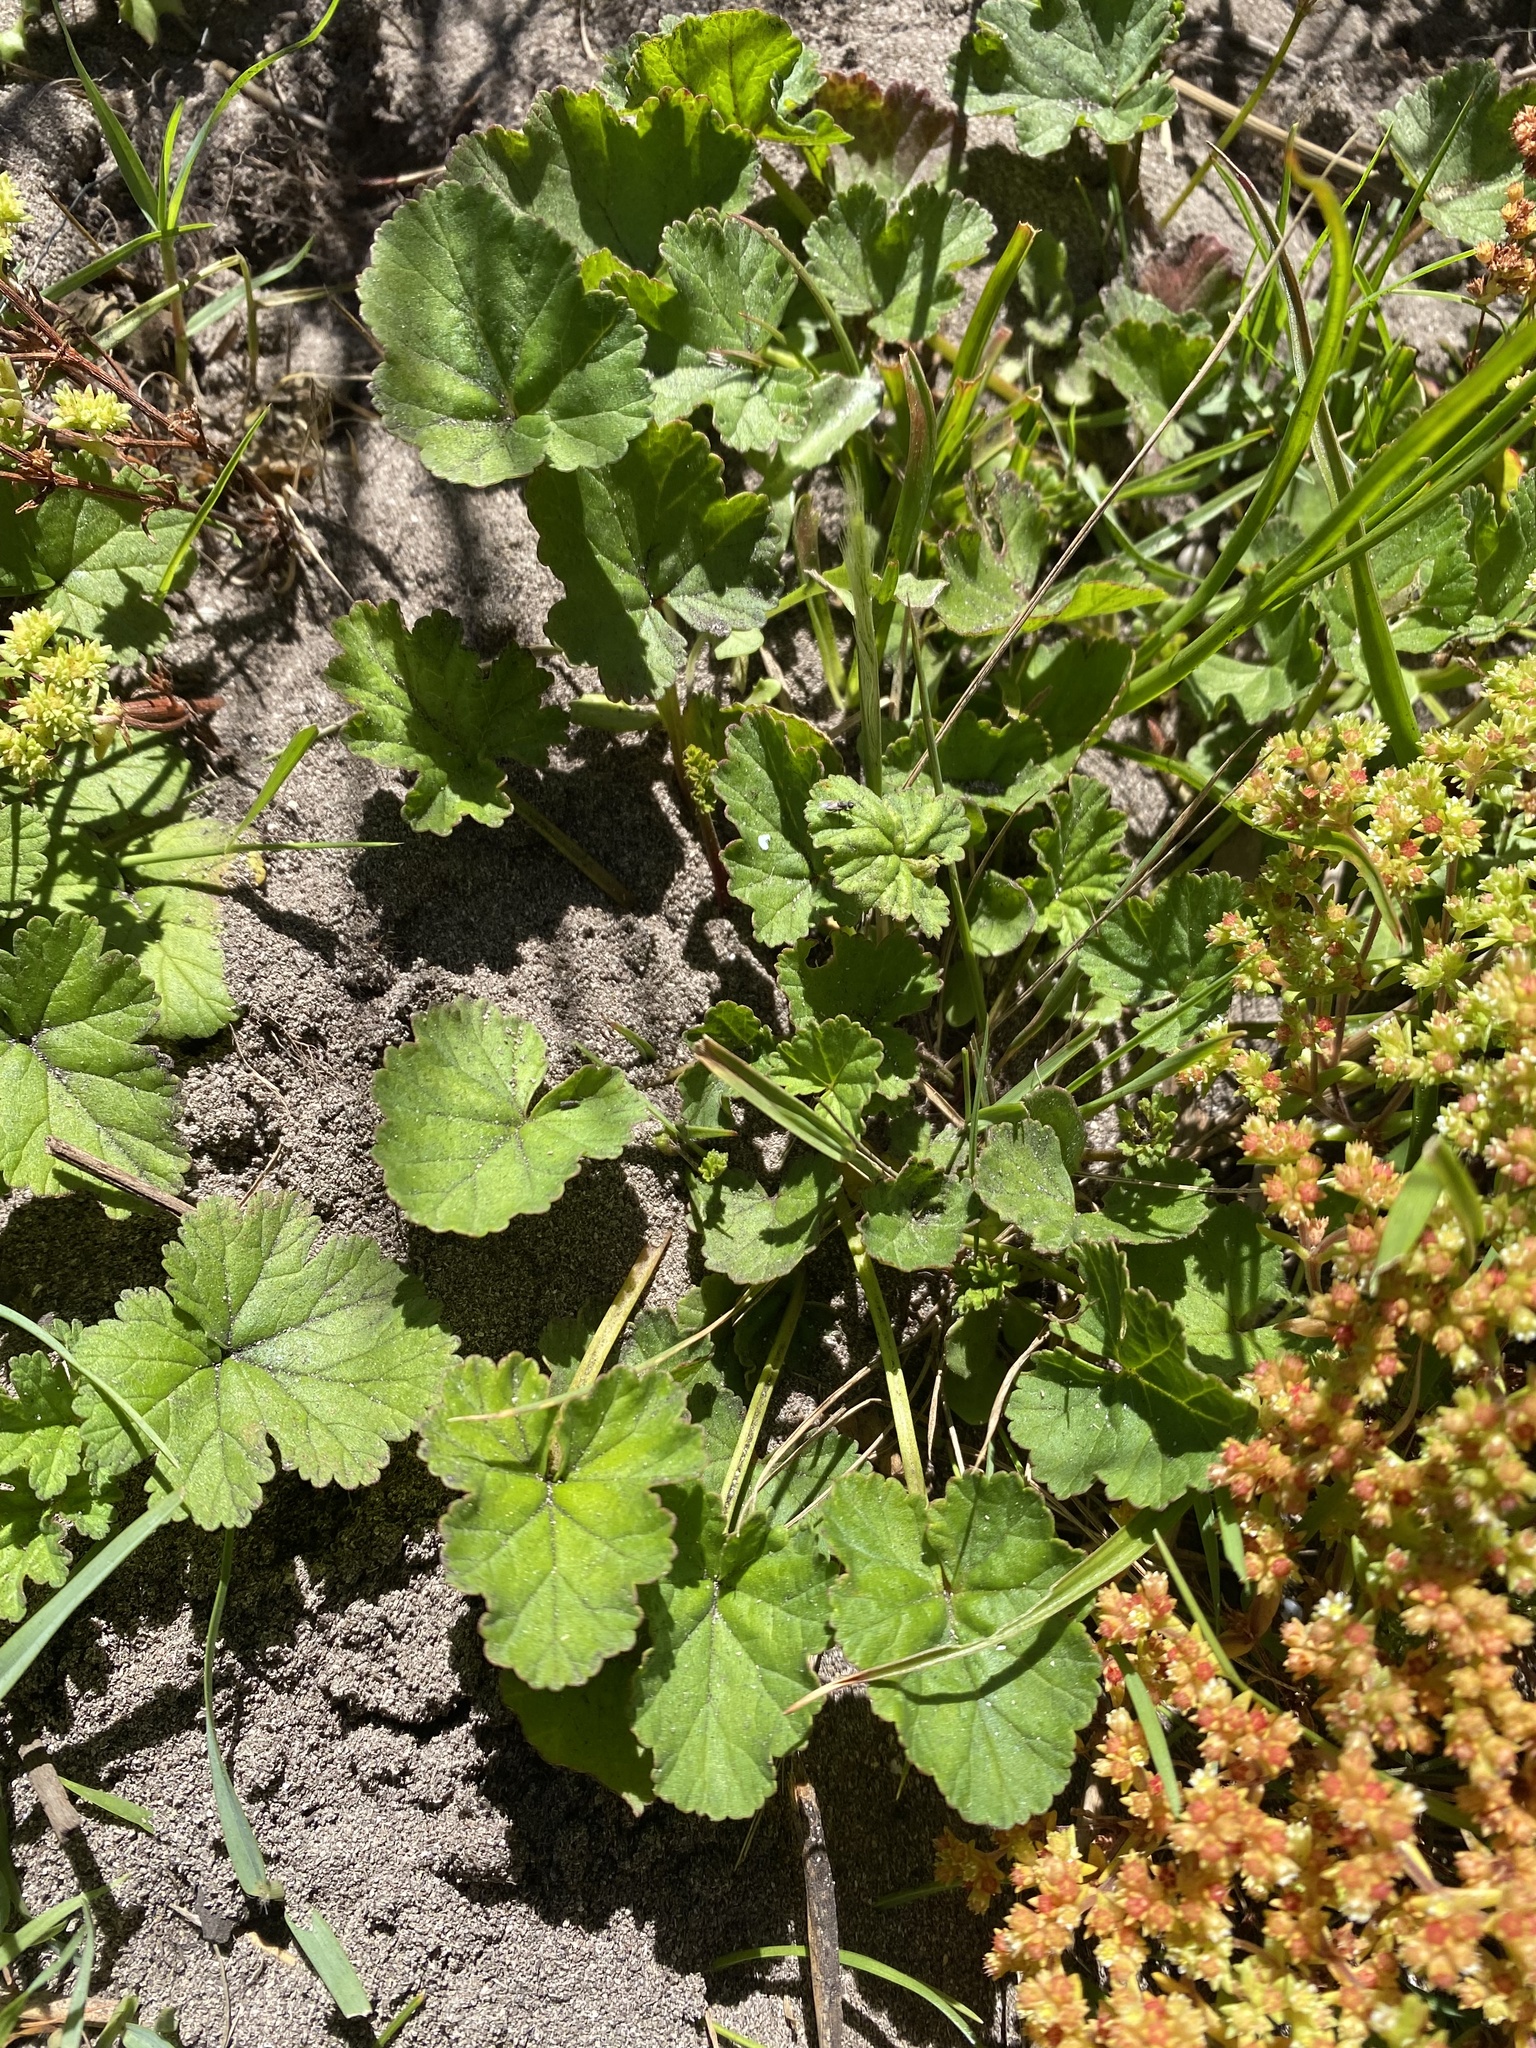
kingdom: Plantae
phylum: Tracheophyta
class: Magnoliopsida
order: Geraniales
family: Geraniaceae
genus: Pelargonium
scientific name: Pelargonium grossularioides
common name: Gooseberry geranium
